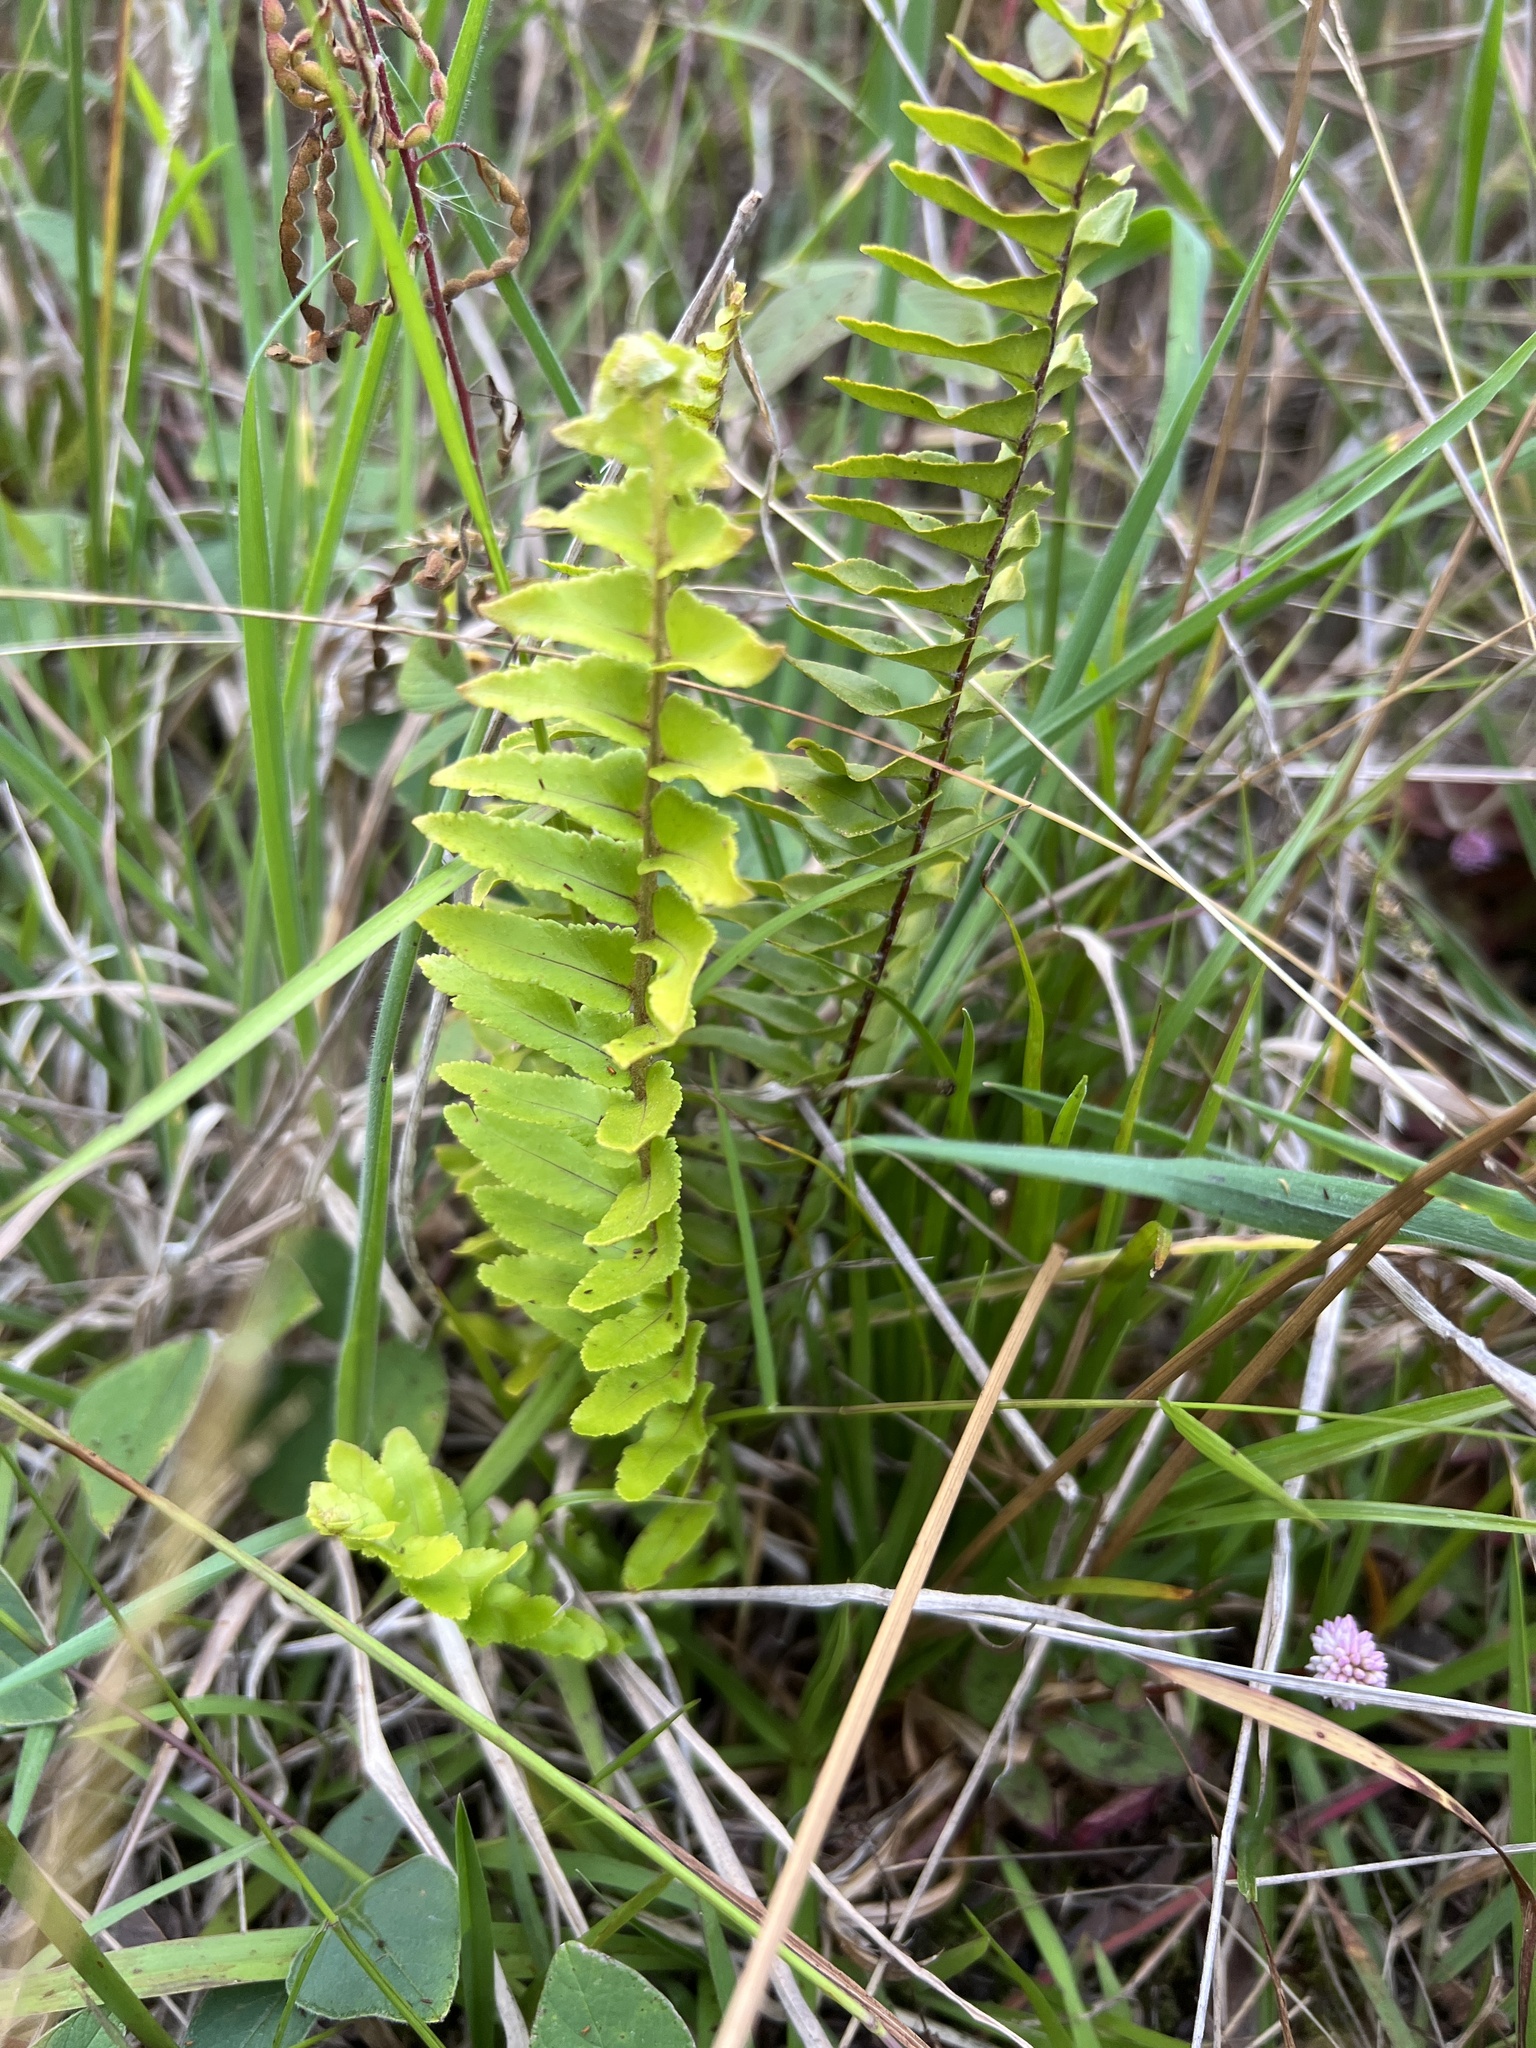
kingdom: Plantae
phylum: Tracheophyta
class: Polypodiopsida
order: Polypodiales
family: Nephrolepidaceae
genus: Nephrolepis
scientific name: Nephrolepis brownii
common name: Asian swordfern
